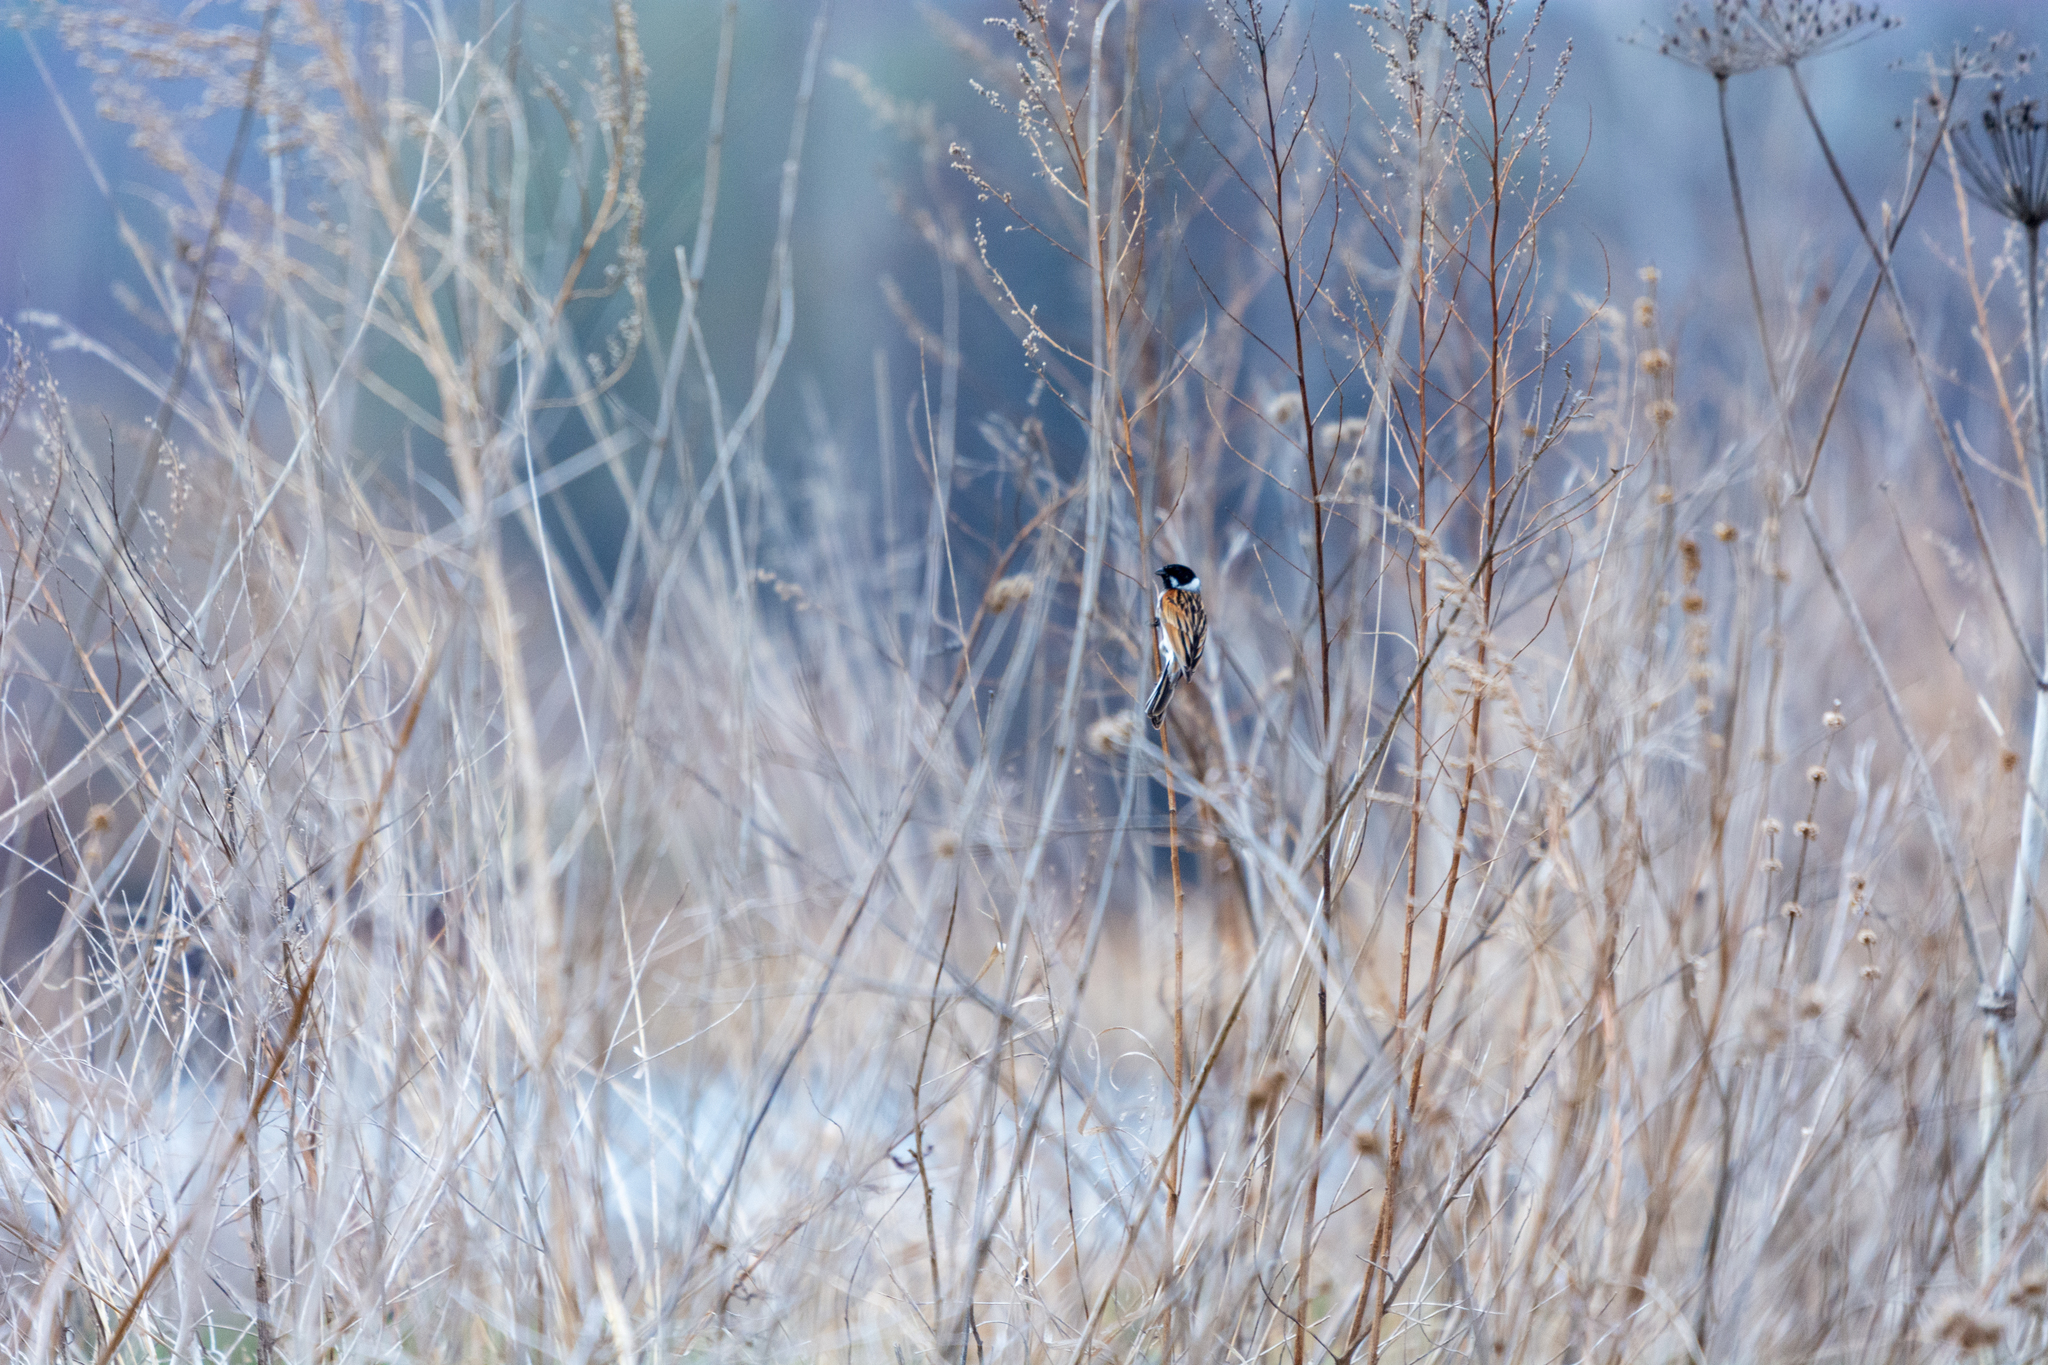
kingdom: Animalia
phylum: Chordata
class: Aves
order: Passeriformes
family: Emberizidae
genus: Emberiza
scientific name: Emberiza schoeniclus
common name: Reed bunting
